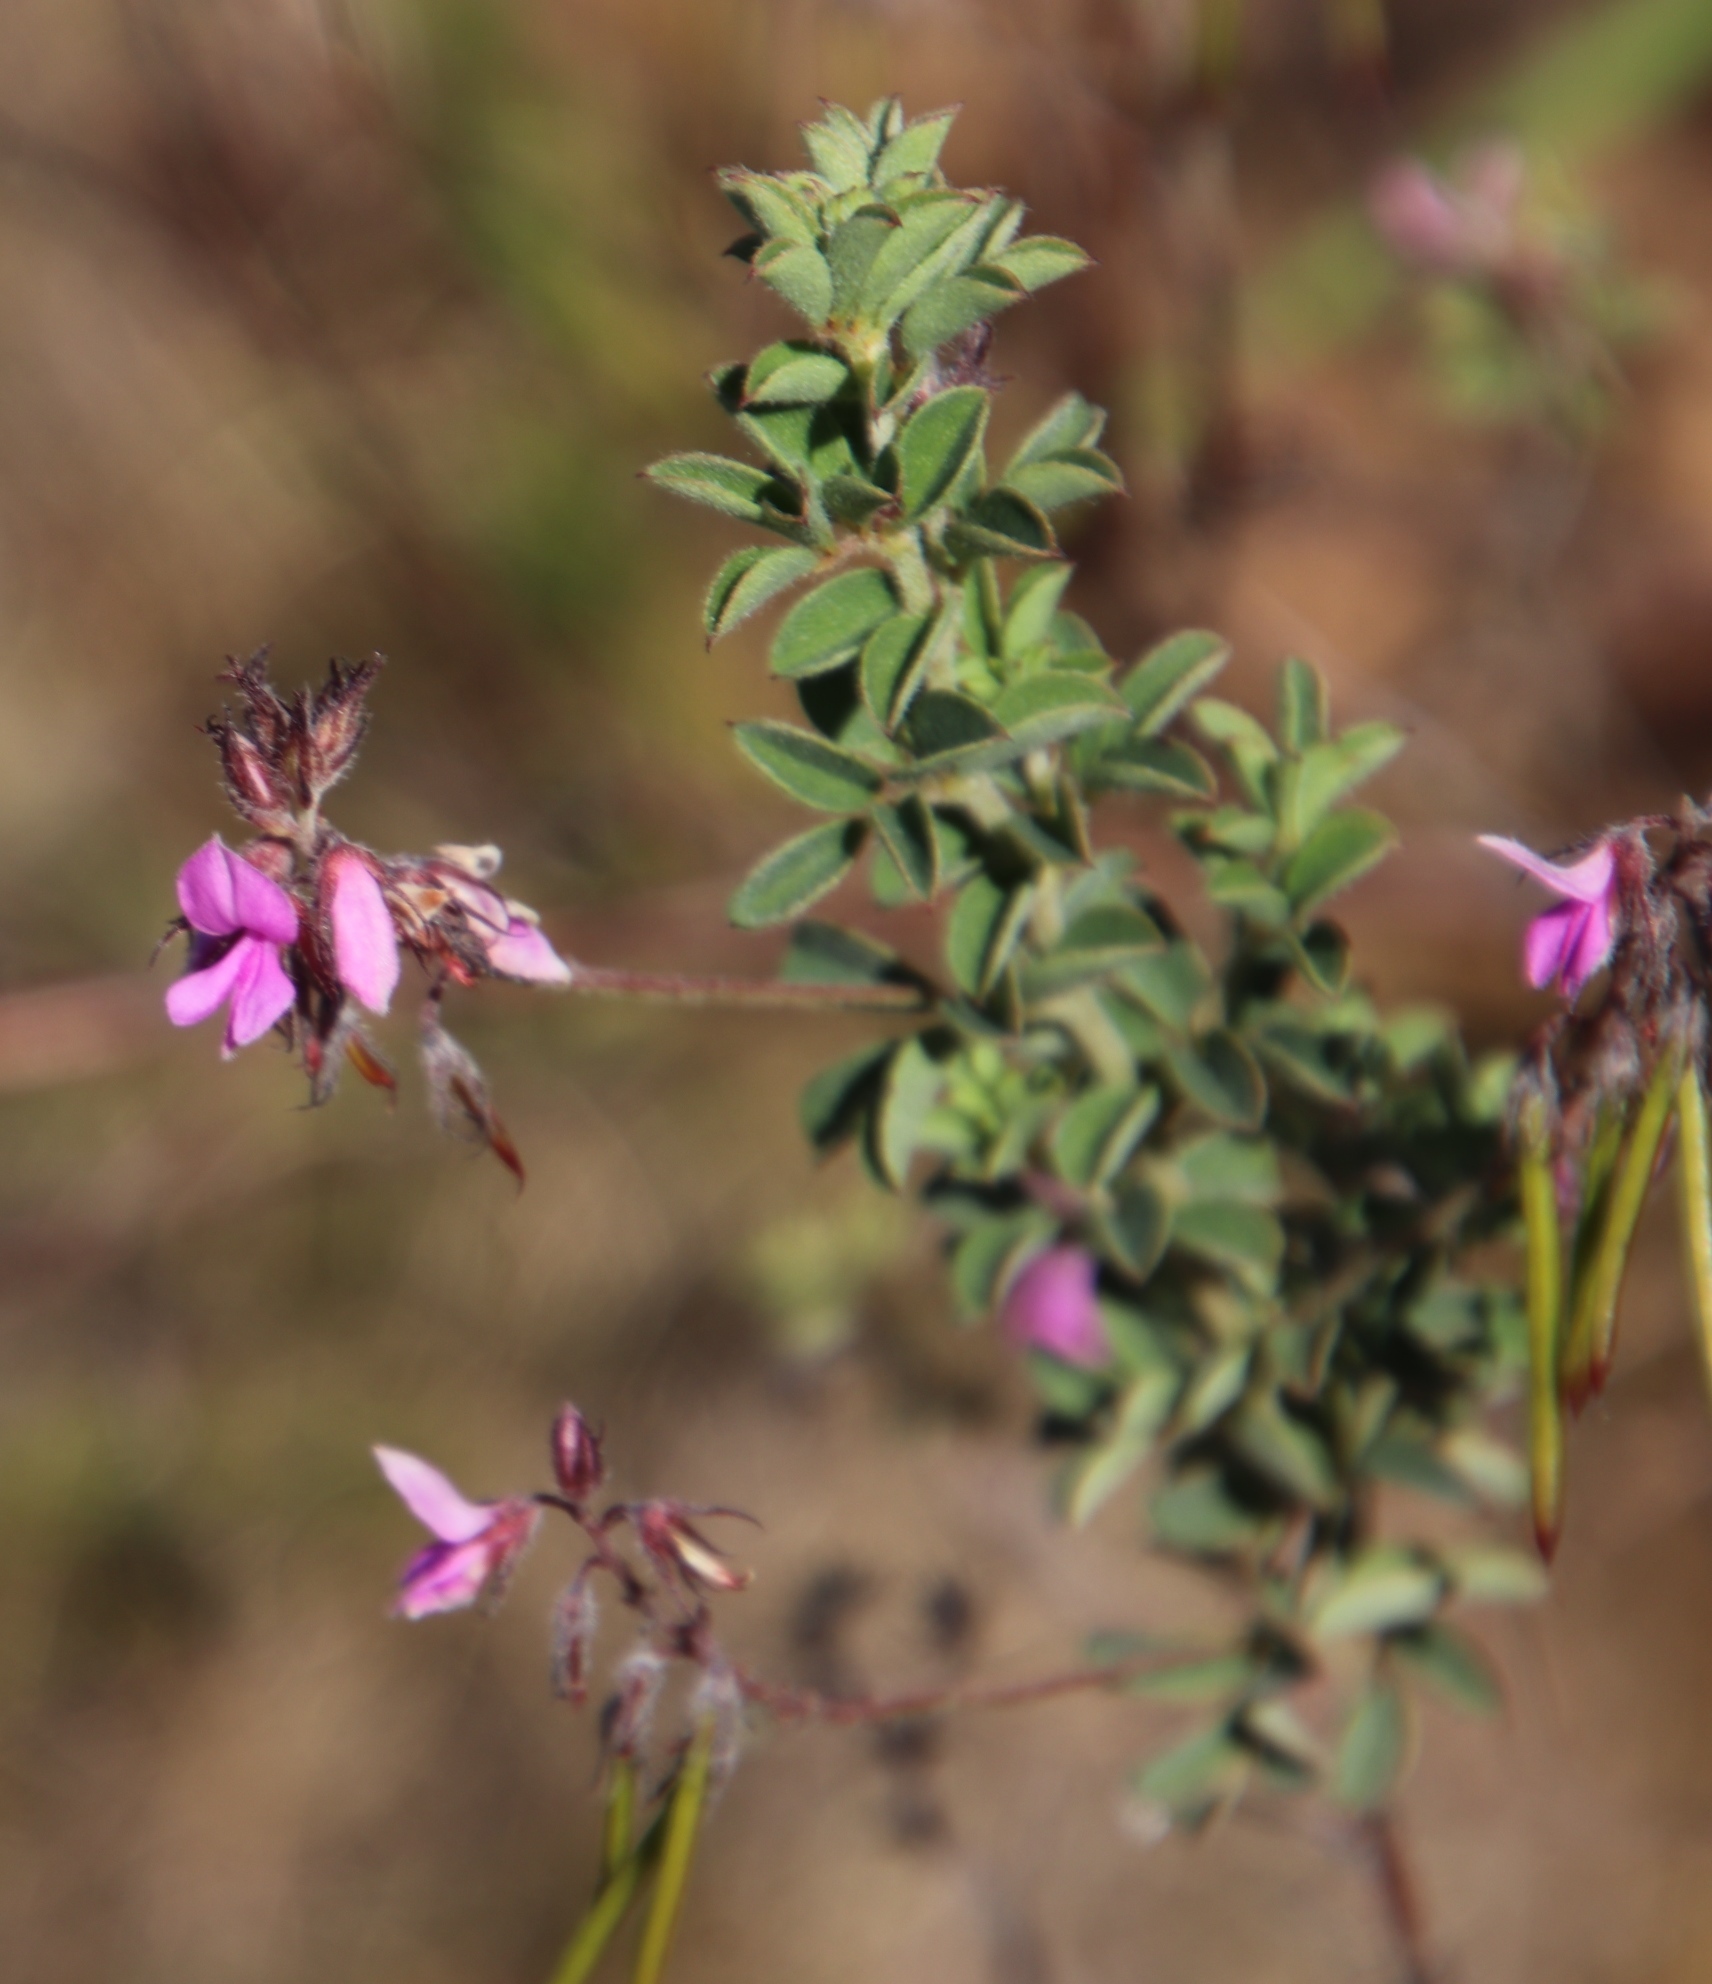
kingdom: Plantae
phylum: Tracheophyta
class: Magnoliopsida
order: Fabales
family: Fabaceae
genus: Indigofera
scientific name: Indigofera alopecuroides
